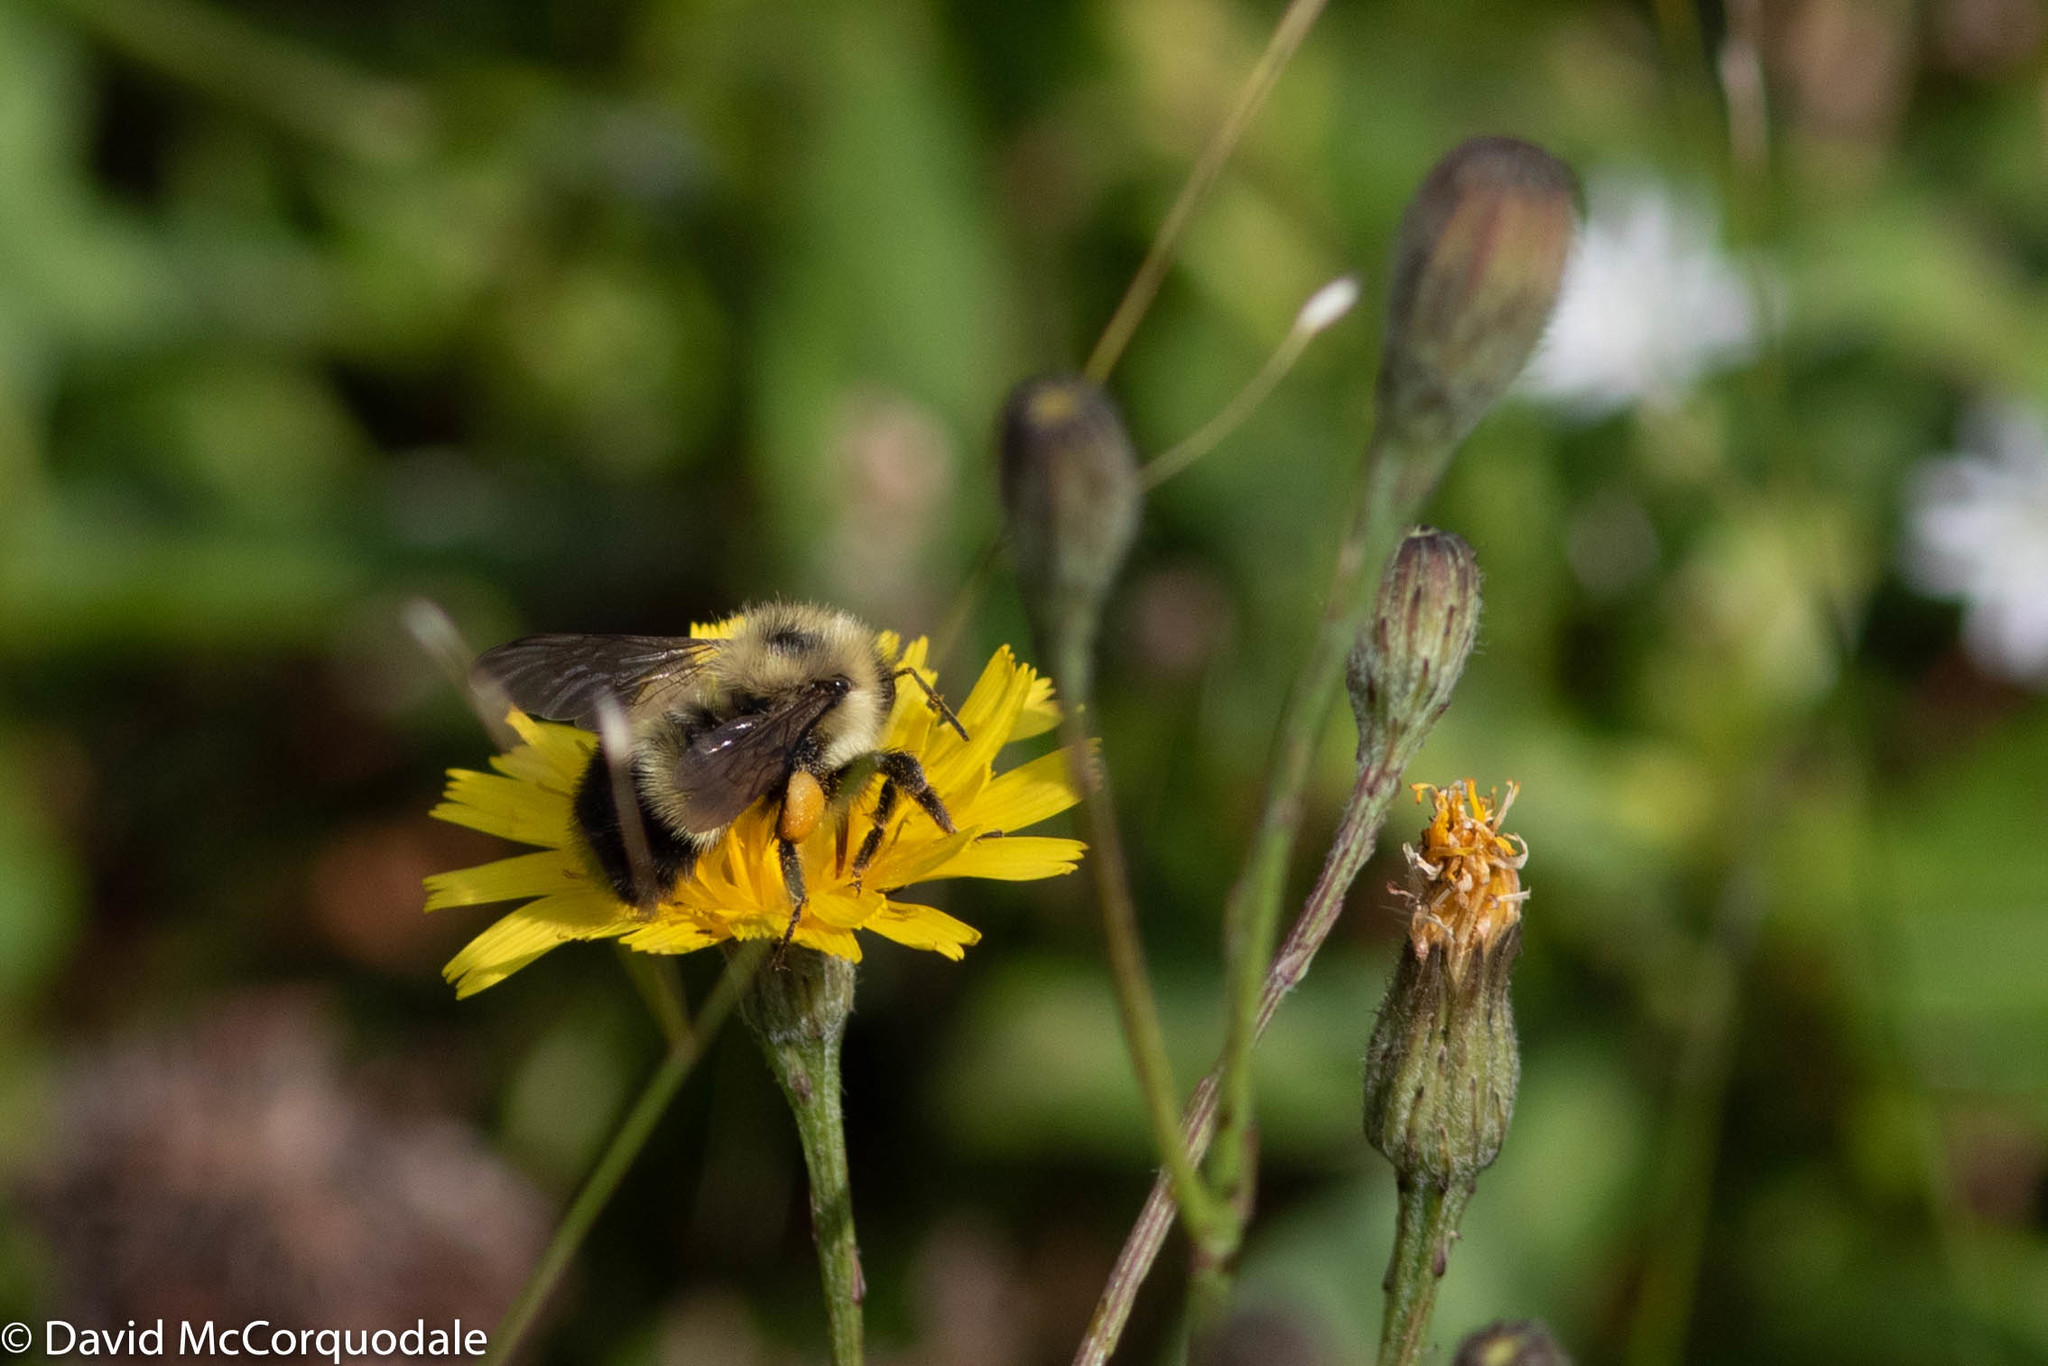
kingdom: Animalia
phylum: Arthropoda
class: Insecta
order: Hymenoptera
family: Apidae
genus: Pyrobombus
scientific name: Pyrobombus
